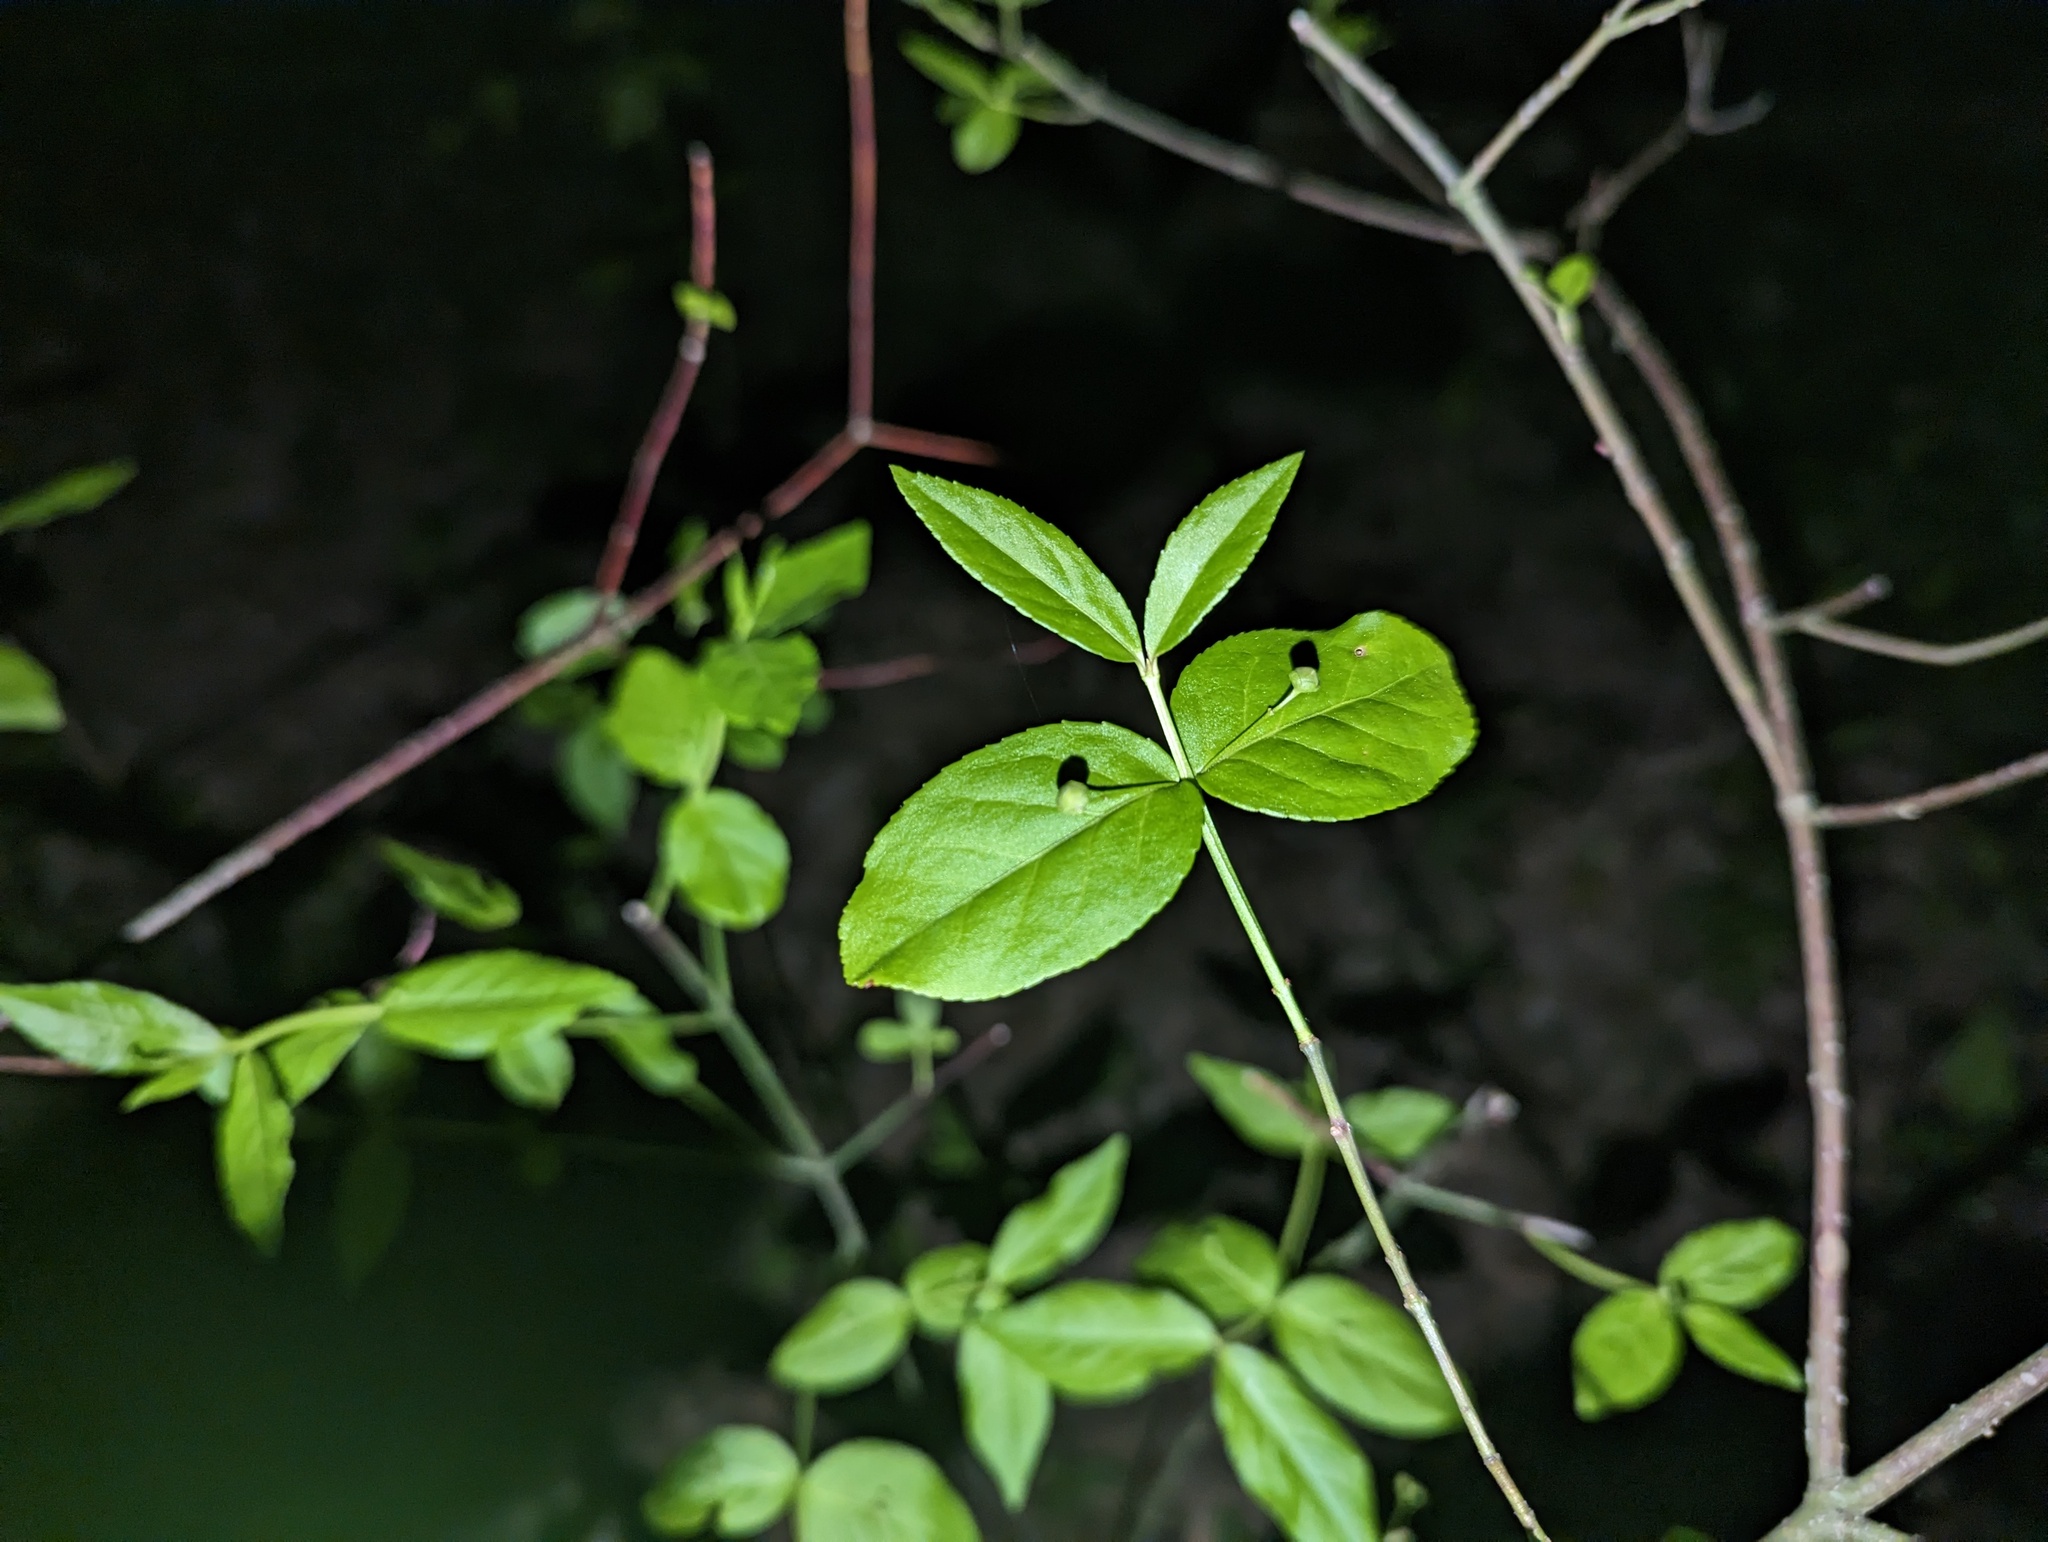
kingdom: Plantae
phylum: Tracheophyta
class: Magnoliopsida
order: Celastrales
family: Celastraceae
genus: Euonymus
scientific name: Euonymus americanus
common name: Bursting-heart
